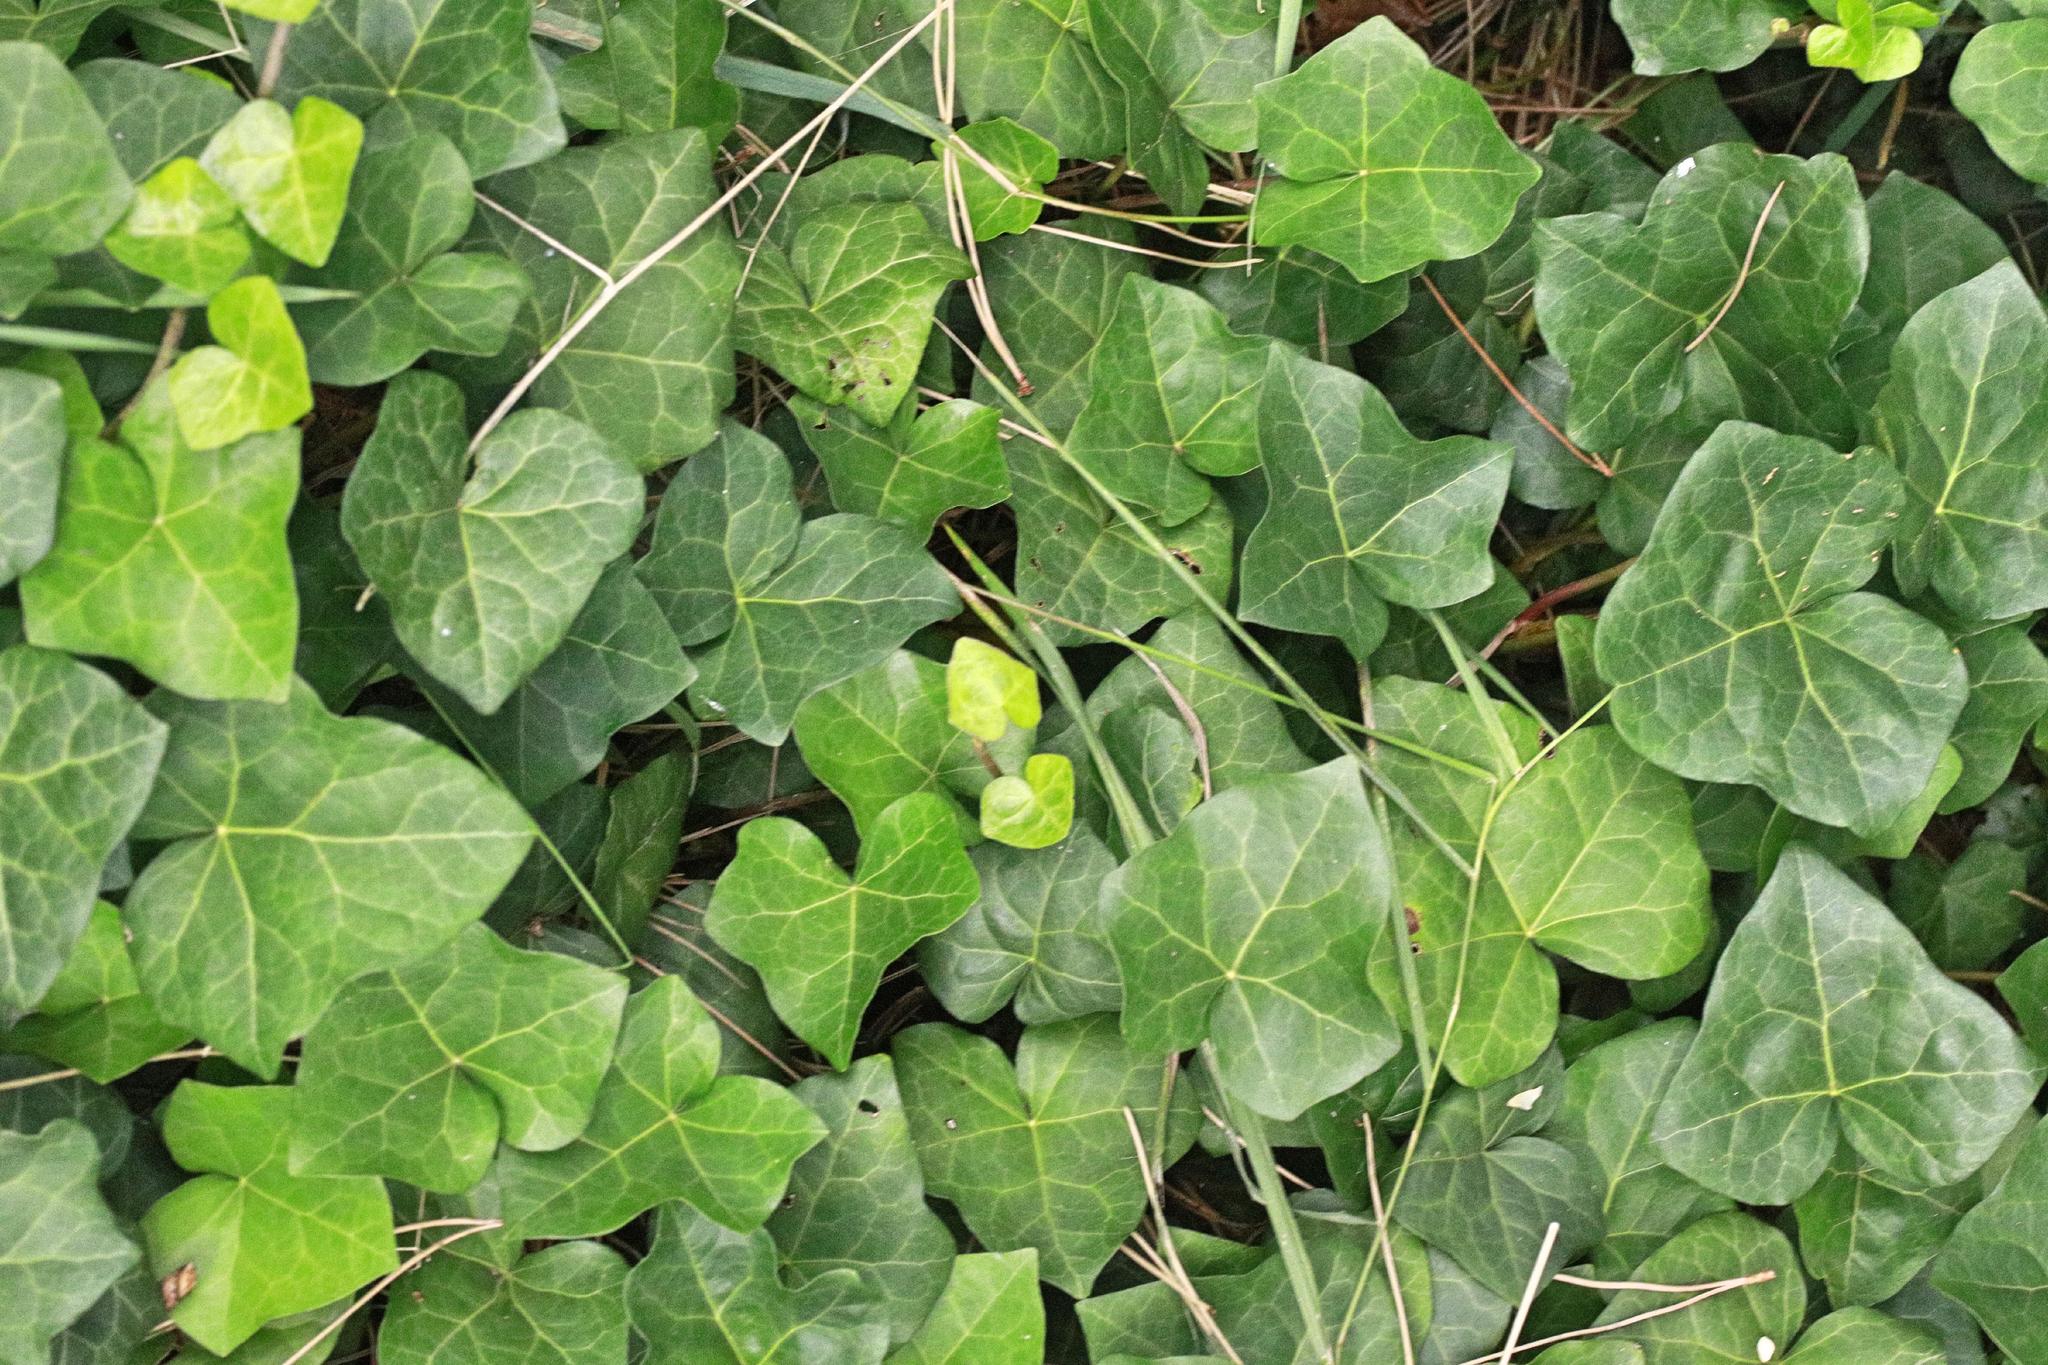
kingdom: Plantae
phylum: Tracheophyta
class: Magnoliopsida
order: Apiales
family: Araliaceae
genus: Hedera
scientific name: Hedera helix
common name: Ivy
